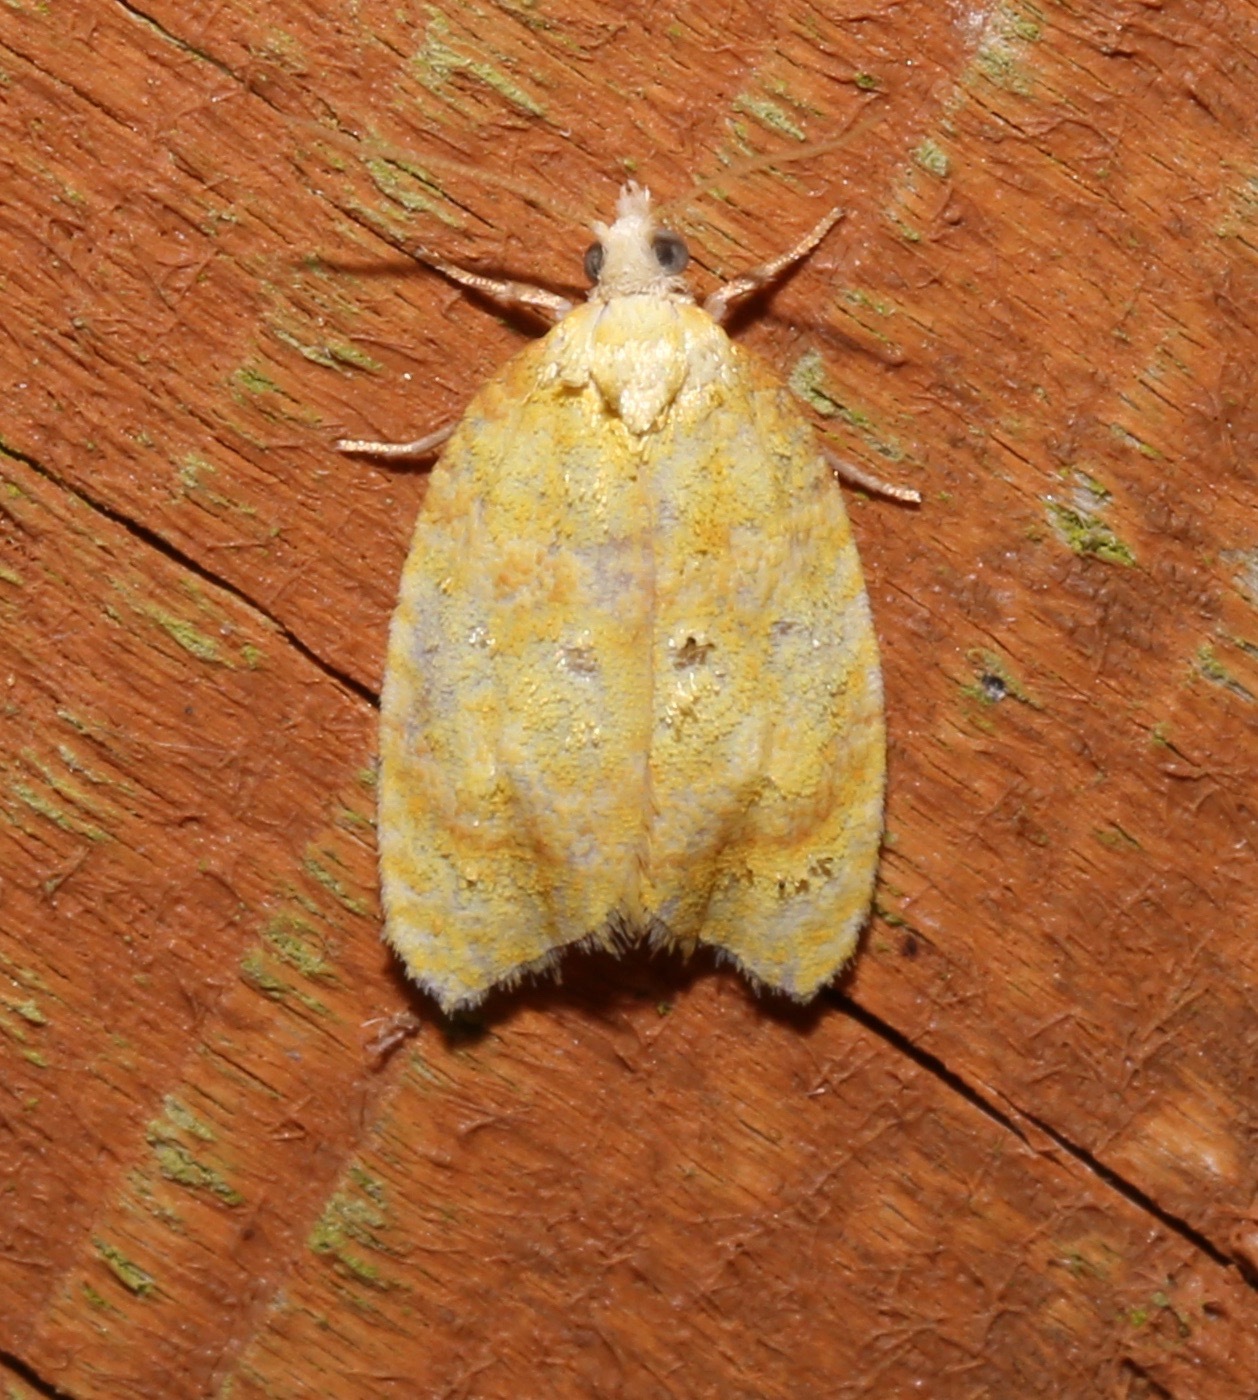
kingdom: Animalia
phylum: Arthropoda
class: Insecta
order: Lepidoptera
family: Tortricidae
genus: Acleris
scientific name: Acleris semipurpurana
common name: Oak leaftier moth
